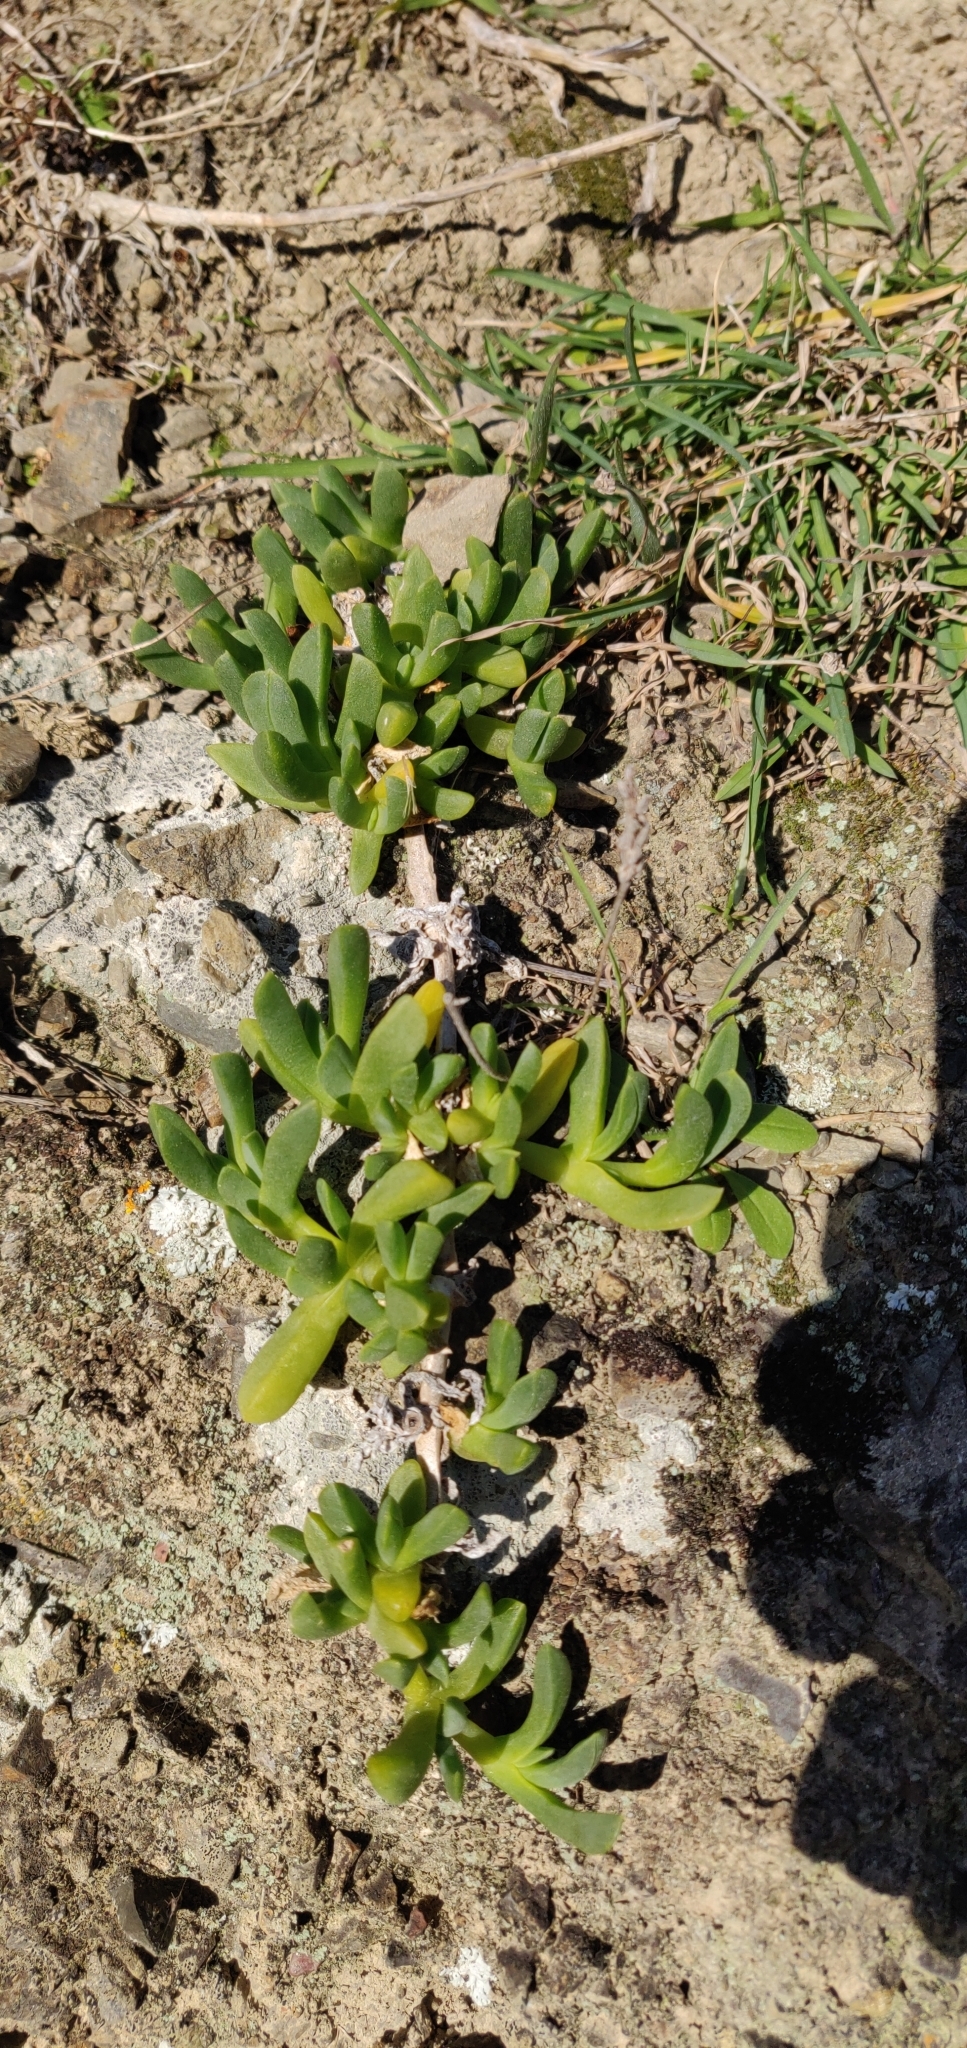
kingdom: Plantae
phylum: Tracheophyta
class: Magnoliopsida
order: Caryophyllales
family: Aizoaceae
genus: Disphyma
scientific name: Disphyma australe
